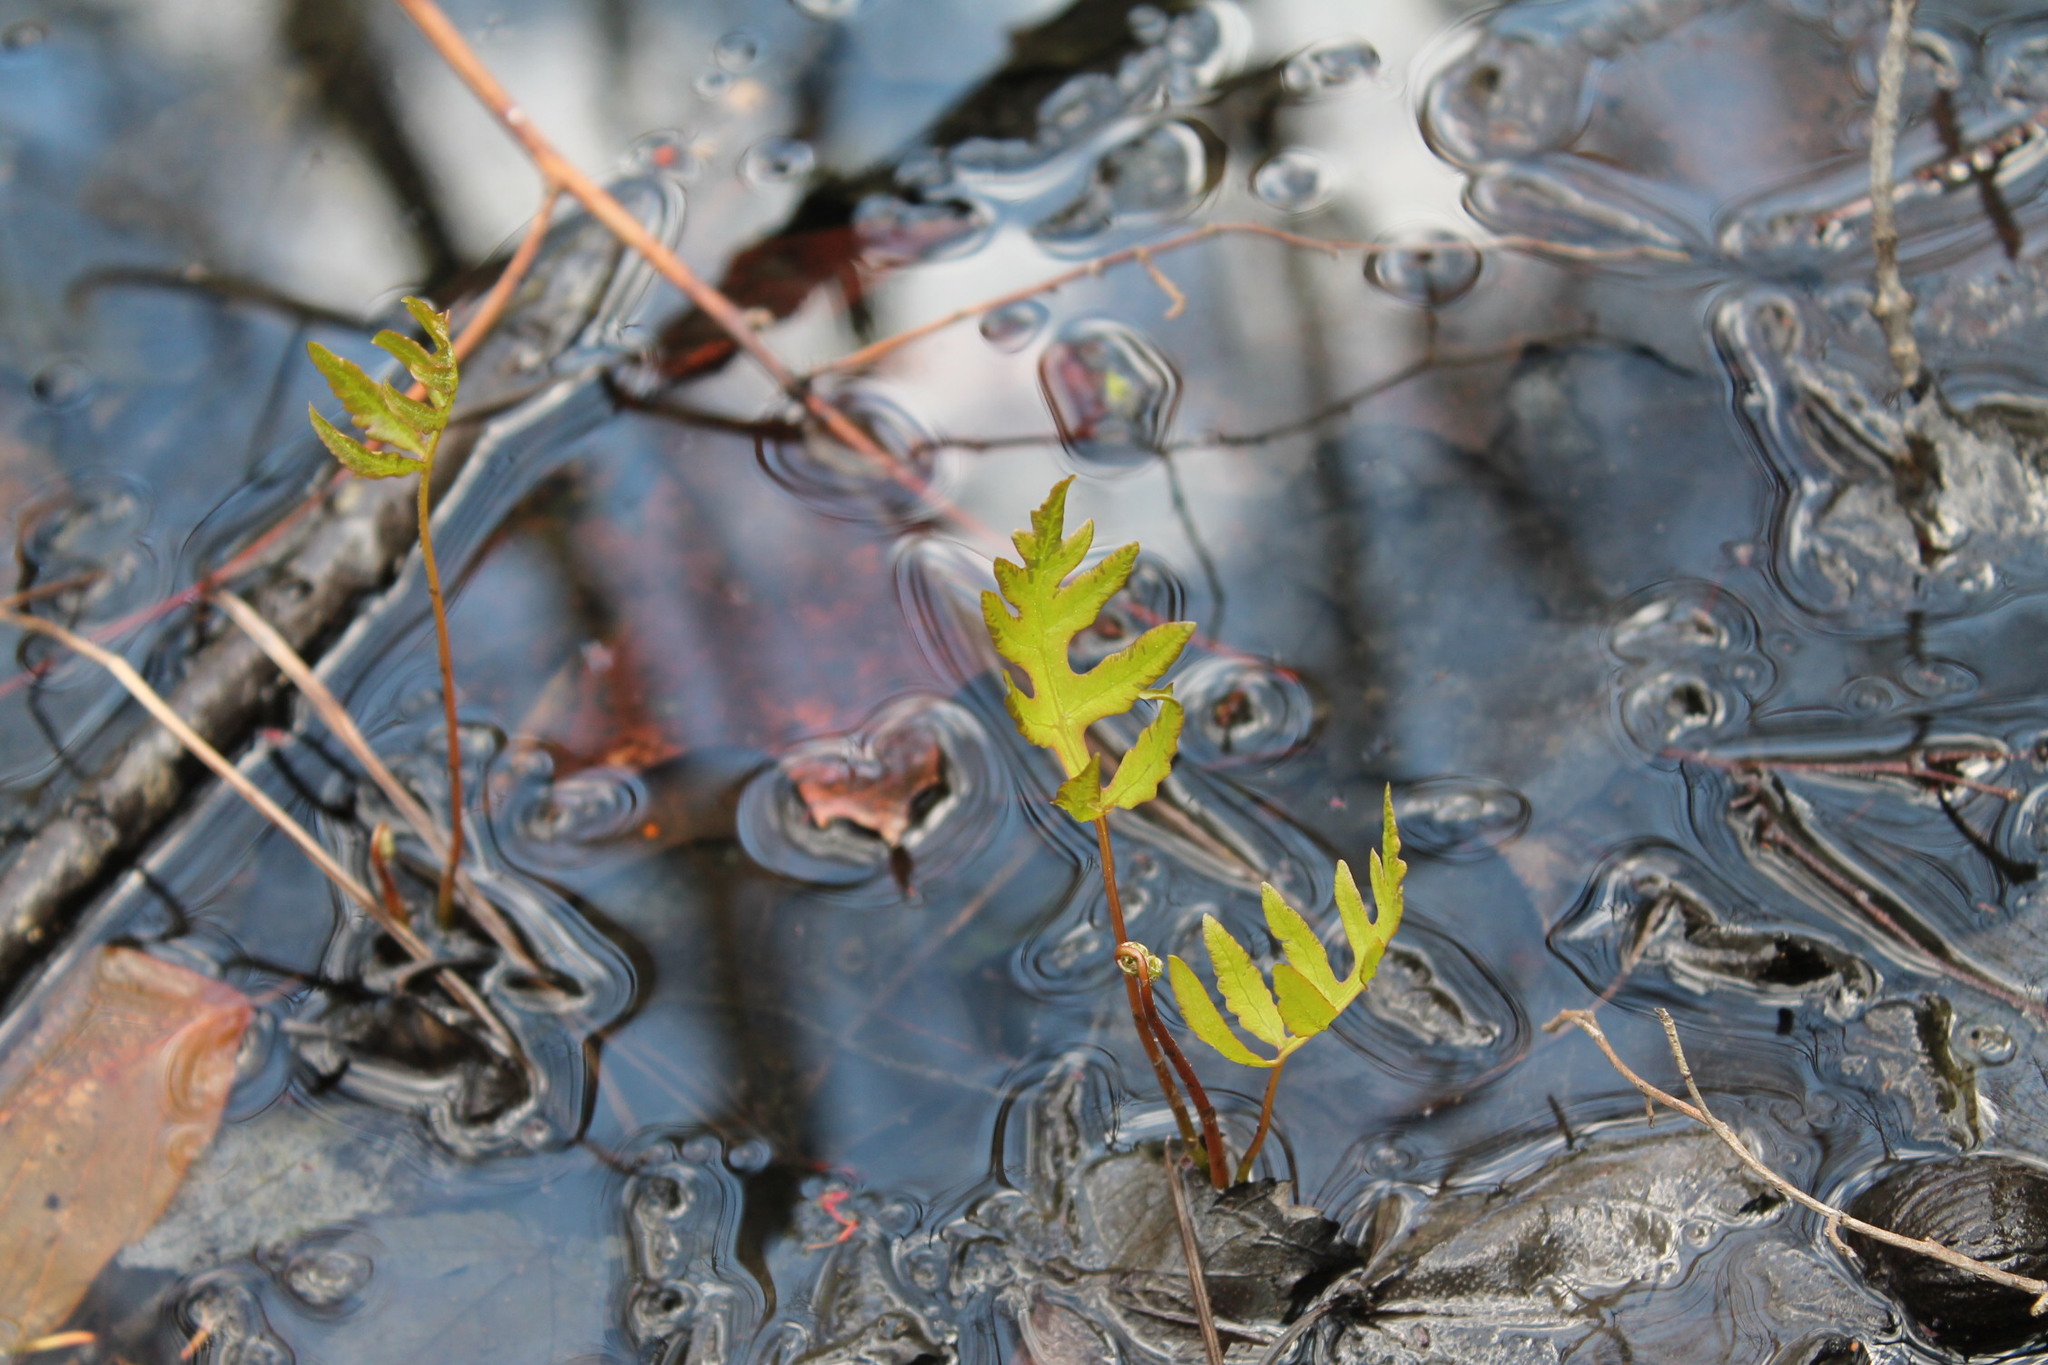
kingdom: Plantae
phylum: Tracheophyta
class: Polypodiopsida
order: Polypodiales
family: Onocleaceae
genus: Onoclea
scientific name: Onoclea sensibilis
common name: Sensitive fern
